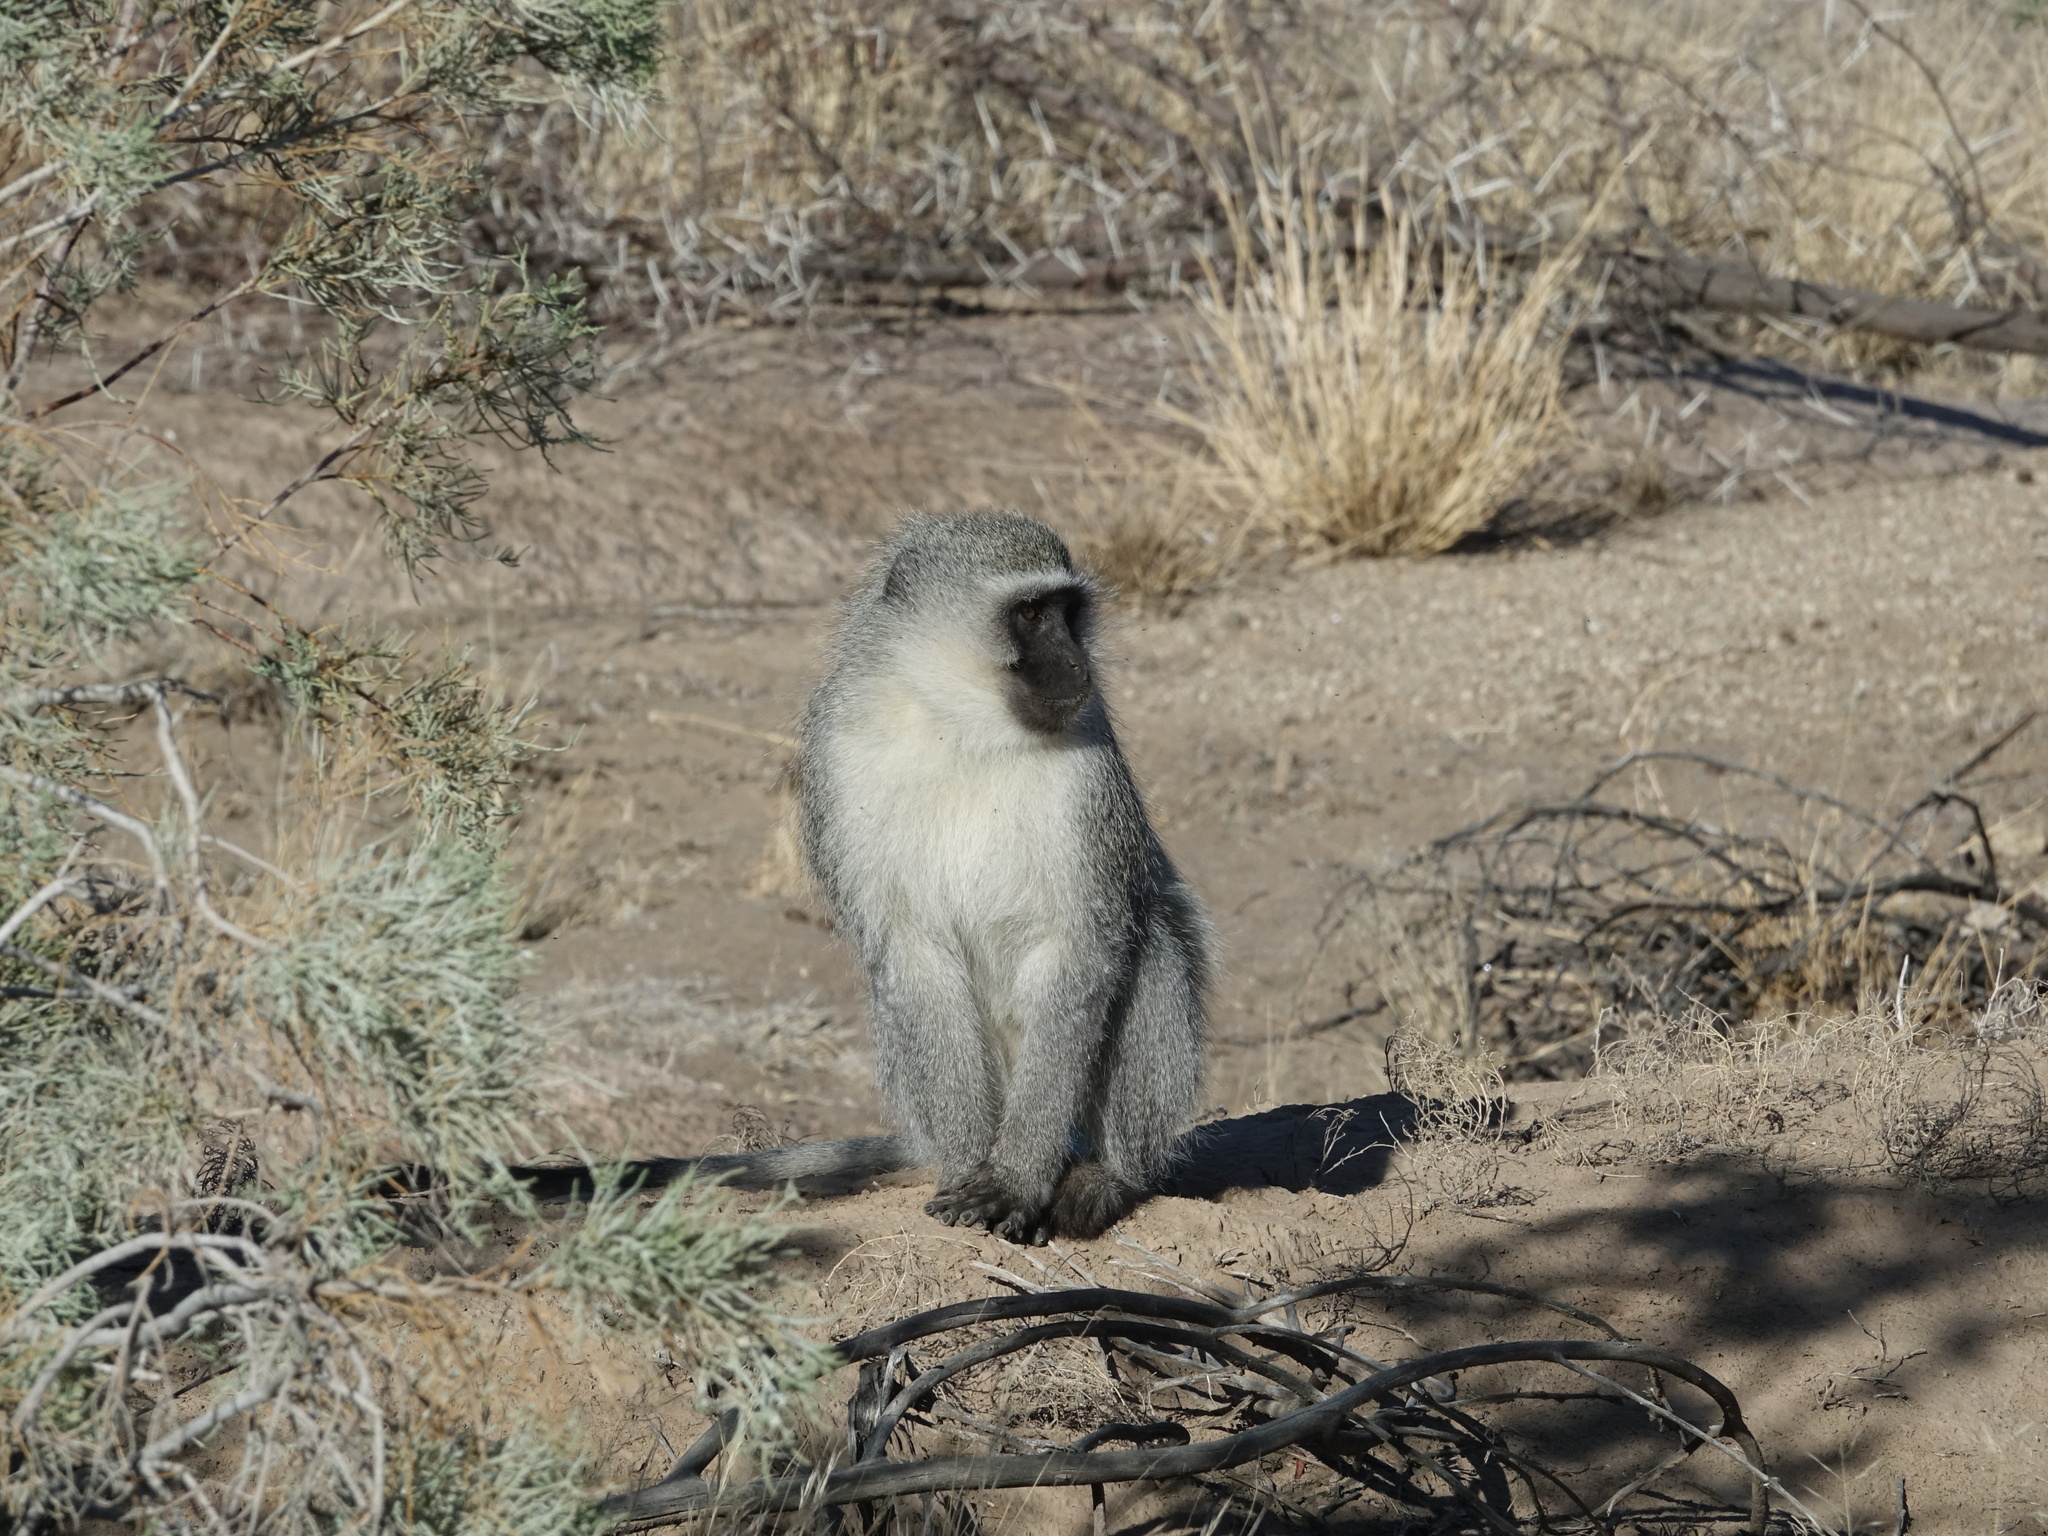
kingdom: Animalia
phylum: Chordata
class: Mammalia
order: Primates
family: Cercopithecidae
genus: Chlorocebus
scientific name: Chlorocebus pygerythrus
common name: Vervet monkey
